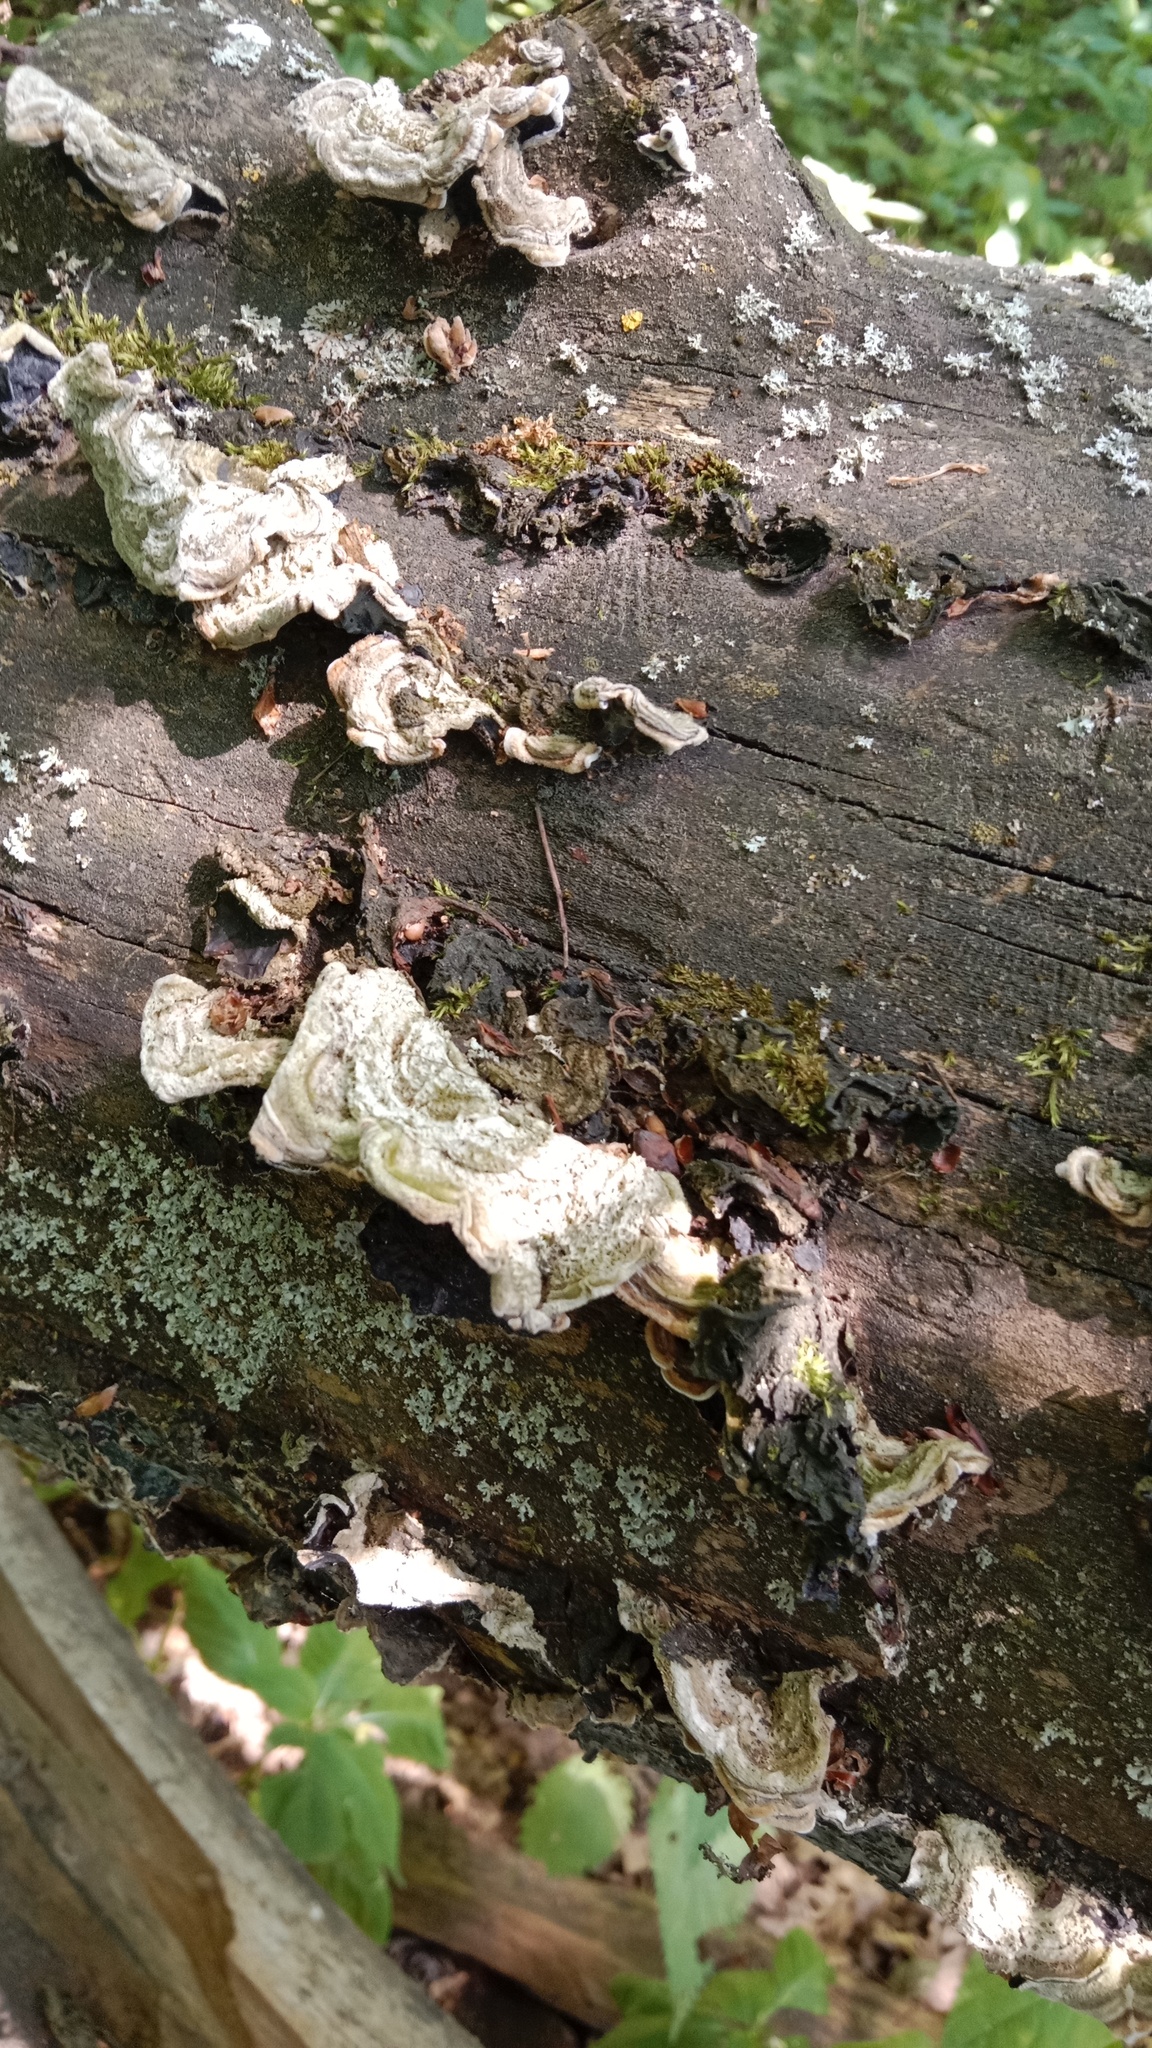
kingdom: Fungi
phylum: Basidiomycota
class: Agaricomycetes
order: Auriculariales
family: Auriculariaceae
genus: Auricularia
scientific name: Auricularia mesenterica
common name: Tripe fungus
